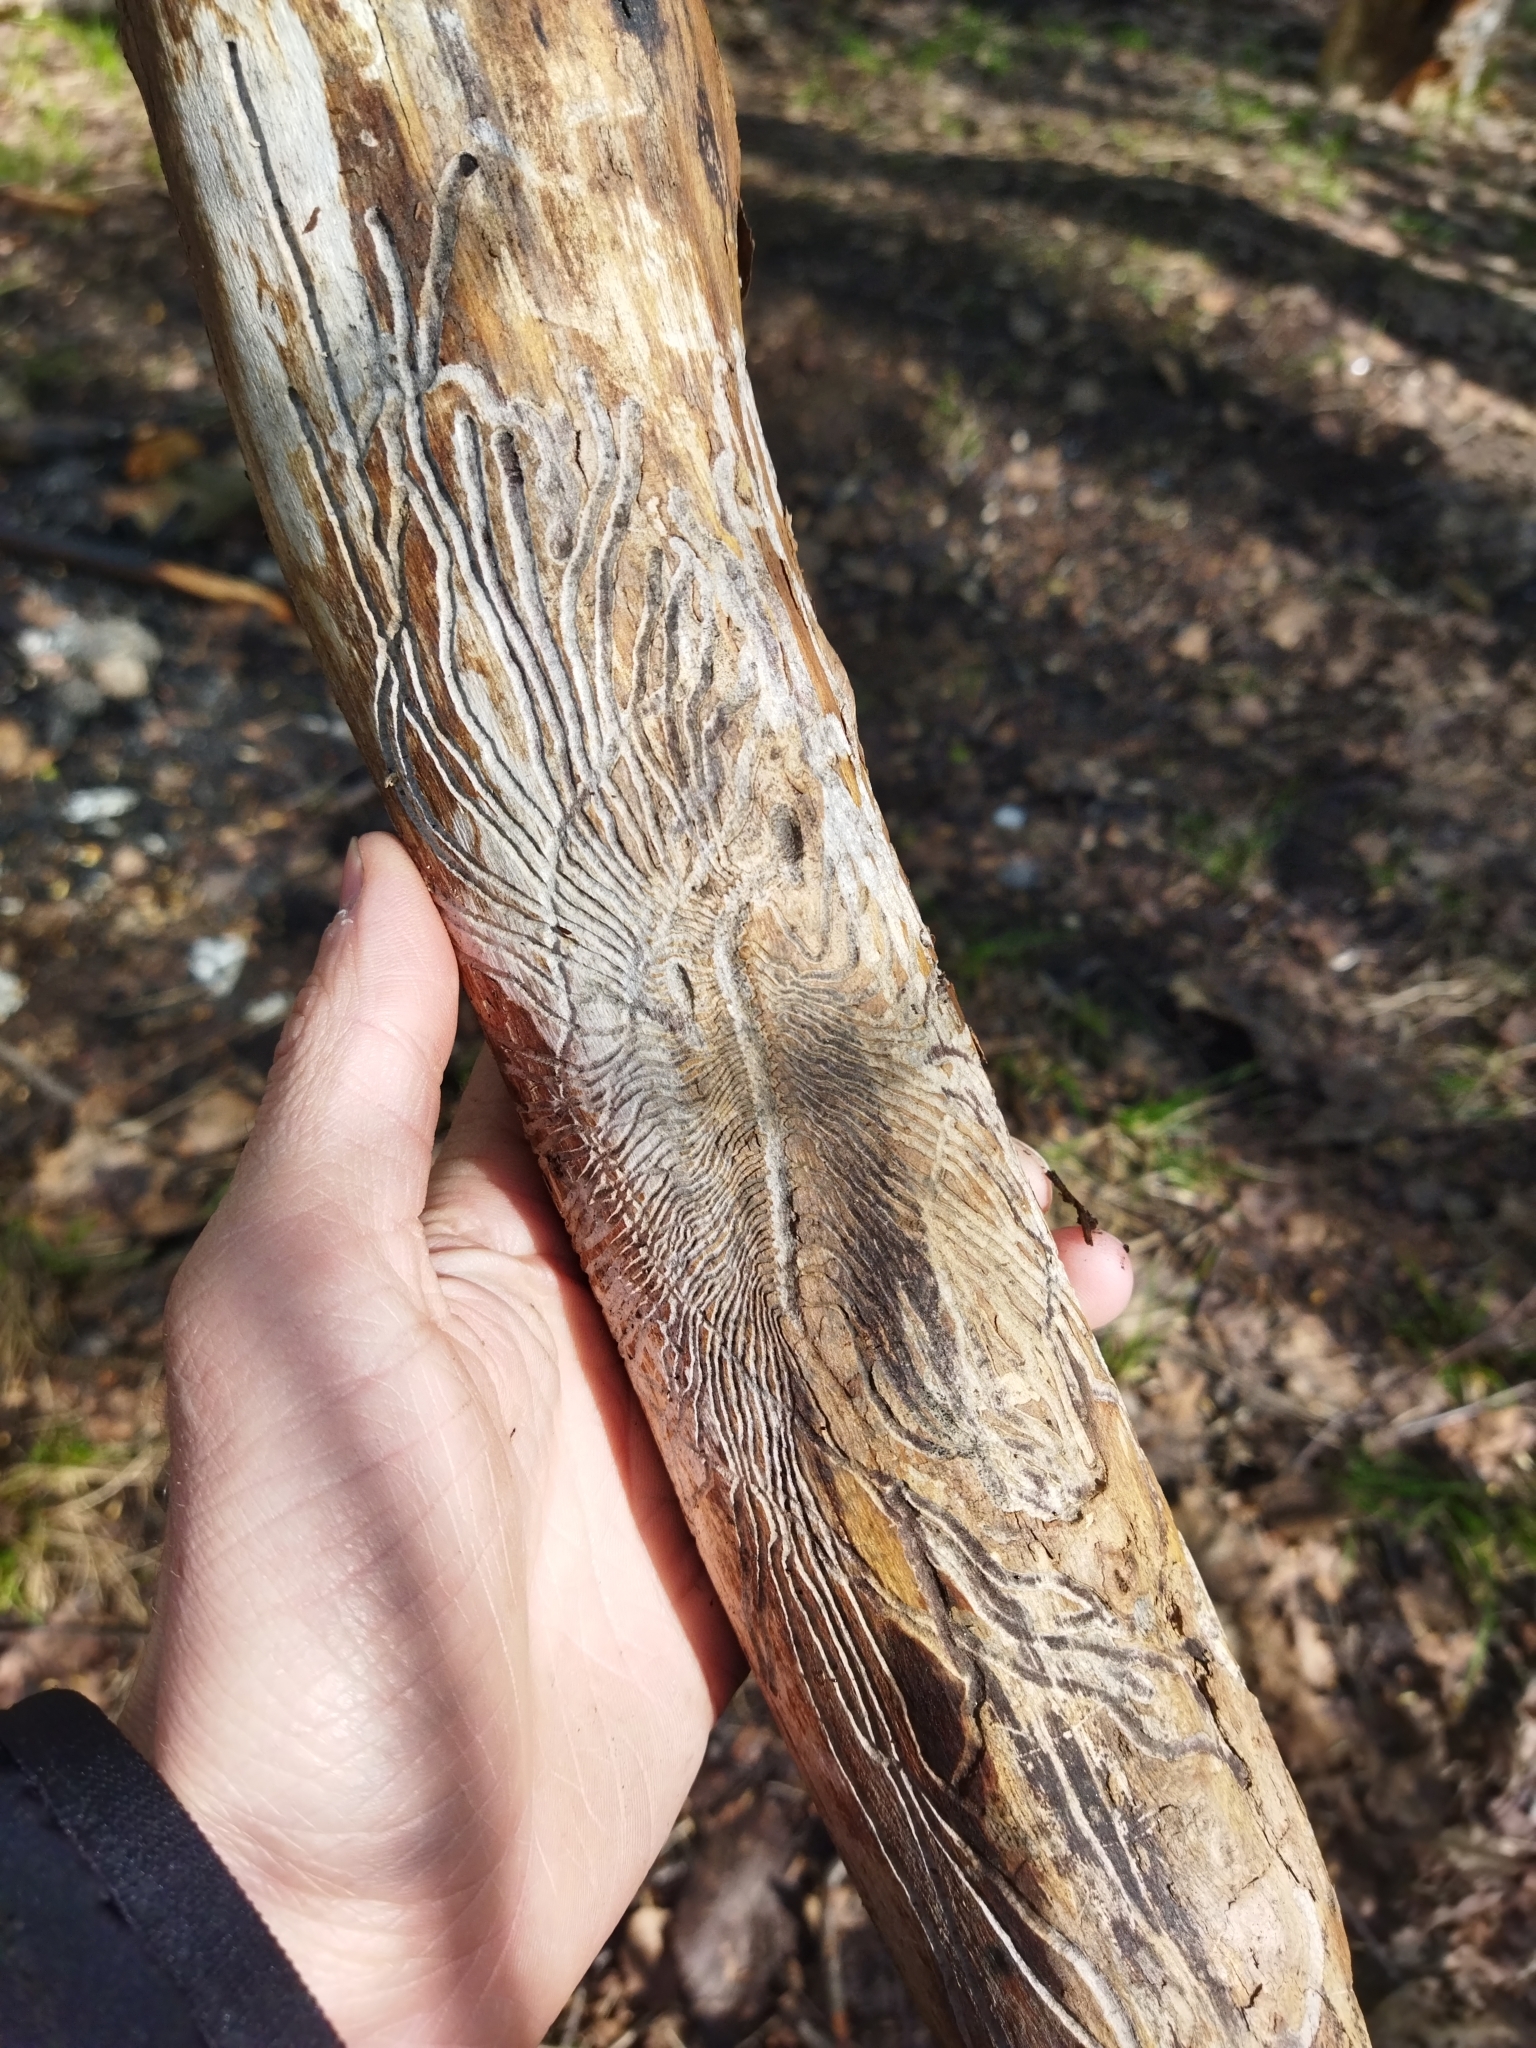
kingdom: Animalia
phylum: Arthropoda
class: Insecta
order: Coleoptera
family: Curculionidae
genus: Scolytus
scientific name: Scolytus ratzeburgii
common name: Birch bark beetle
